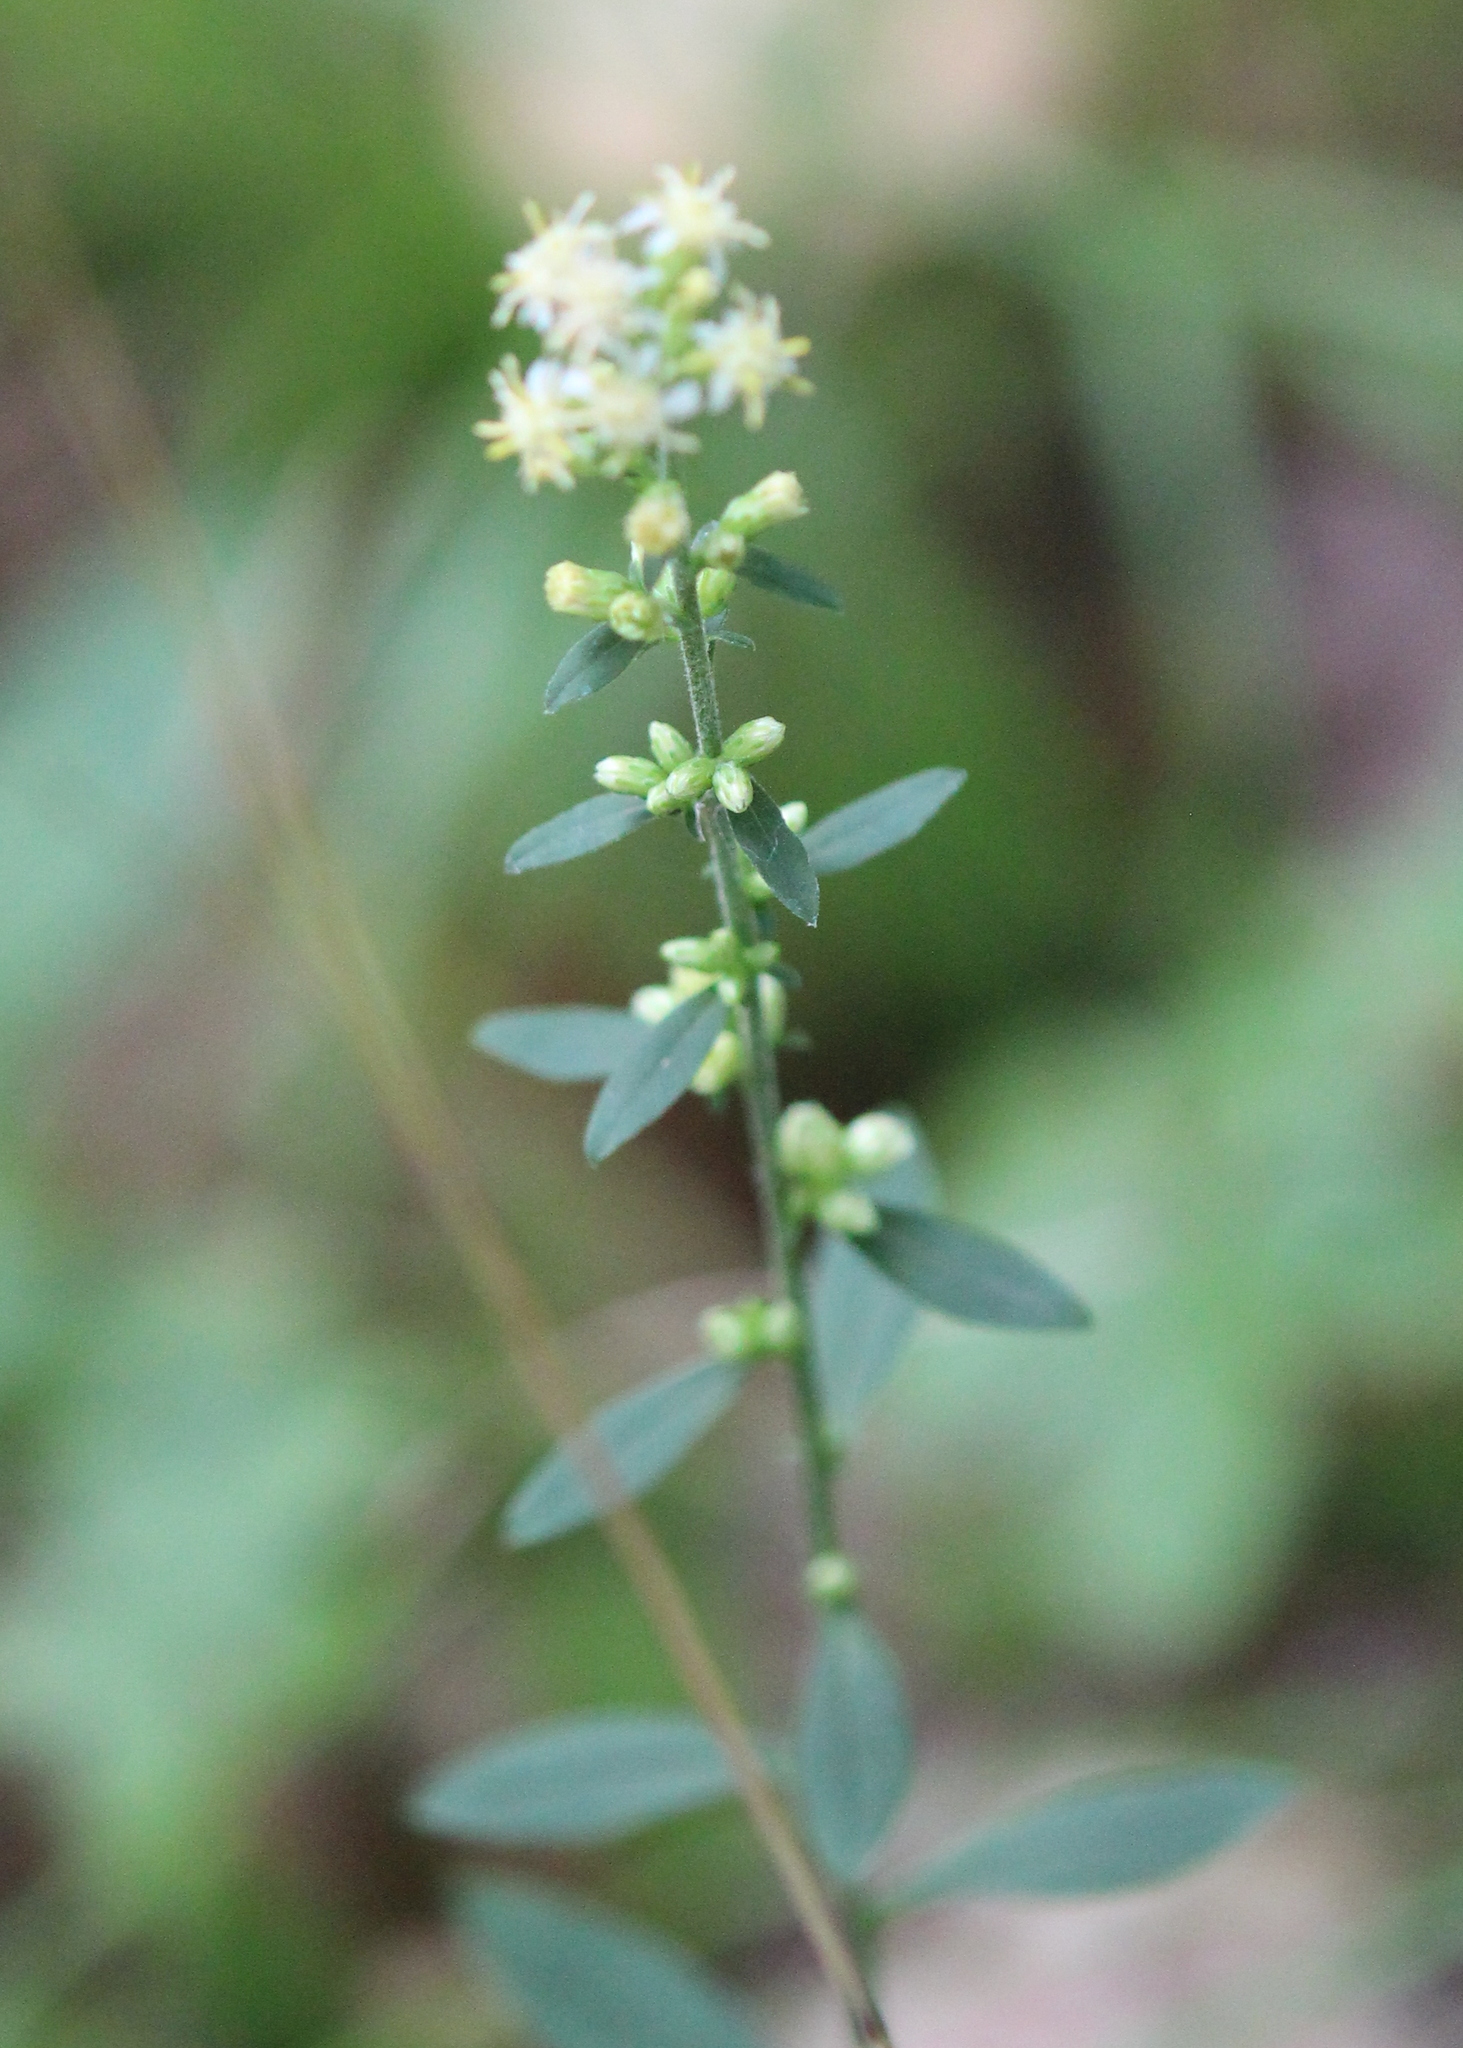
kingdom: Plantae
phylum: Tracheophyta
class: Magnoliopsida
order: Asterales
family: Asteraceae
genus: Solidago
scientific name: Solidago bicolor
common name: Silverrod
